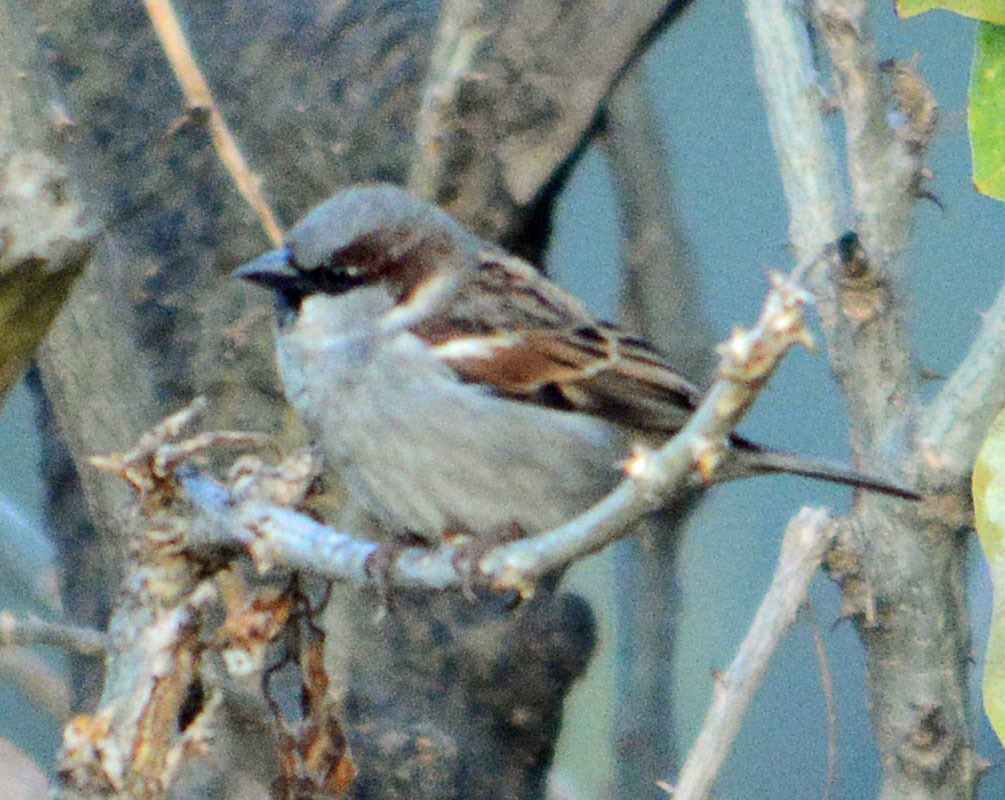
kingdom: Animalia
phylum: Chordata
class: Aves
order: Passeriformes
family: Passeridae
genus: Passer
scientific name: Passer domesticus
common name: House sparrow
